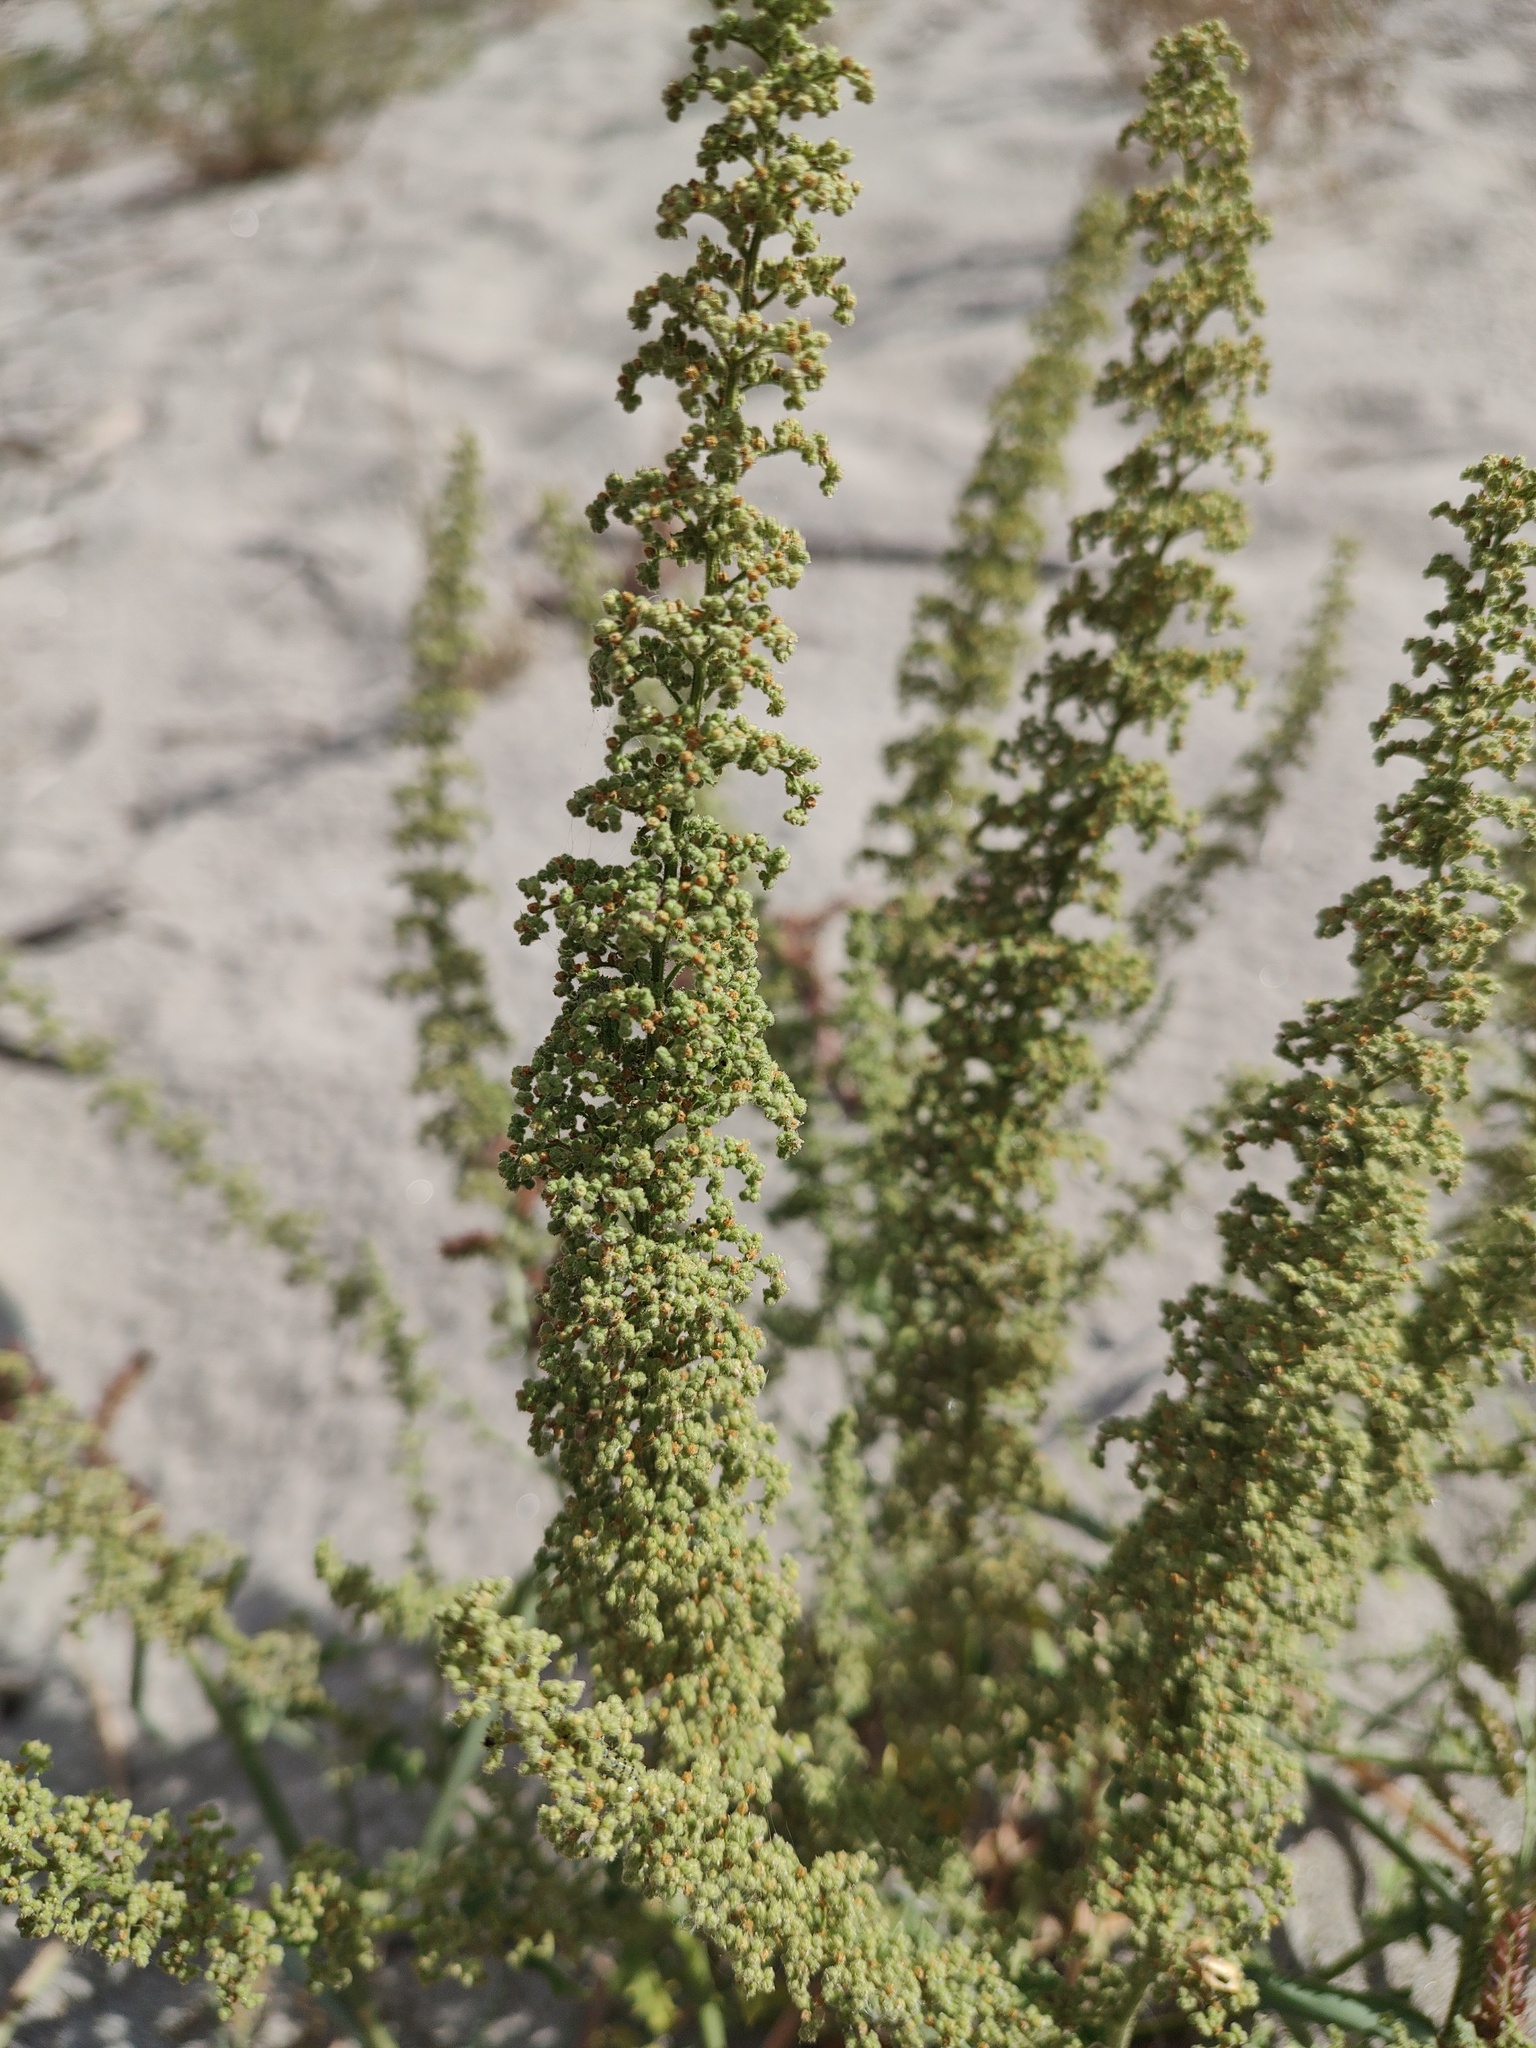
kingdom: Plantae
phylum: Tracheophyta
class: Magnoliopsida
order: Caryophyllales
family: Amaranthaceae
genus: Dysphania
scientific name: Dysphania botrys
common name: Feather-geranium
